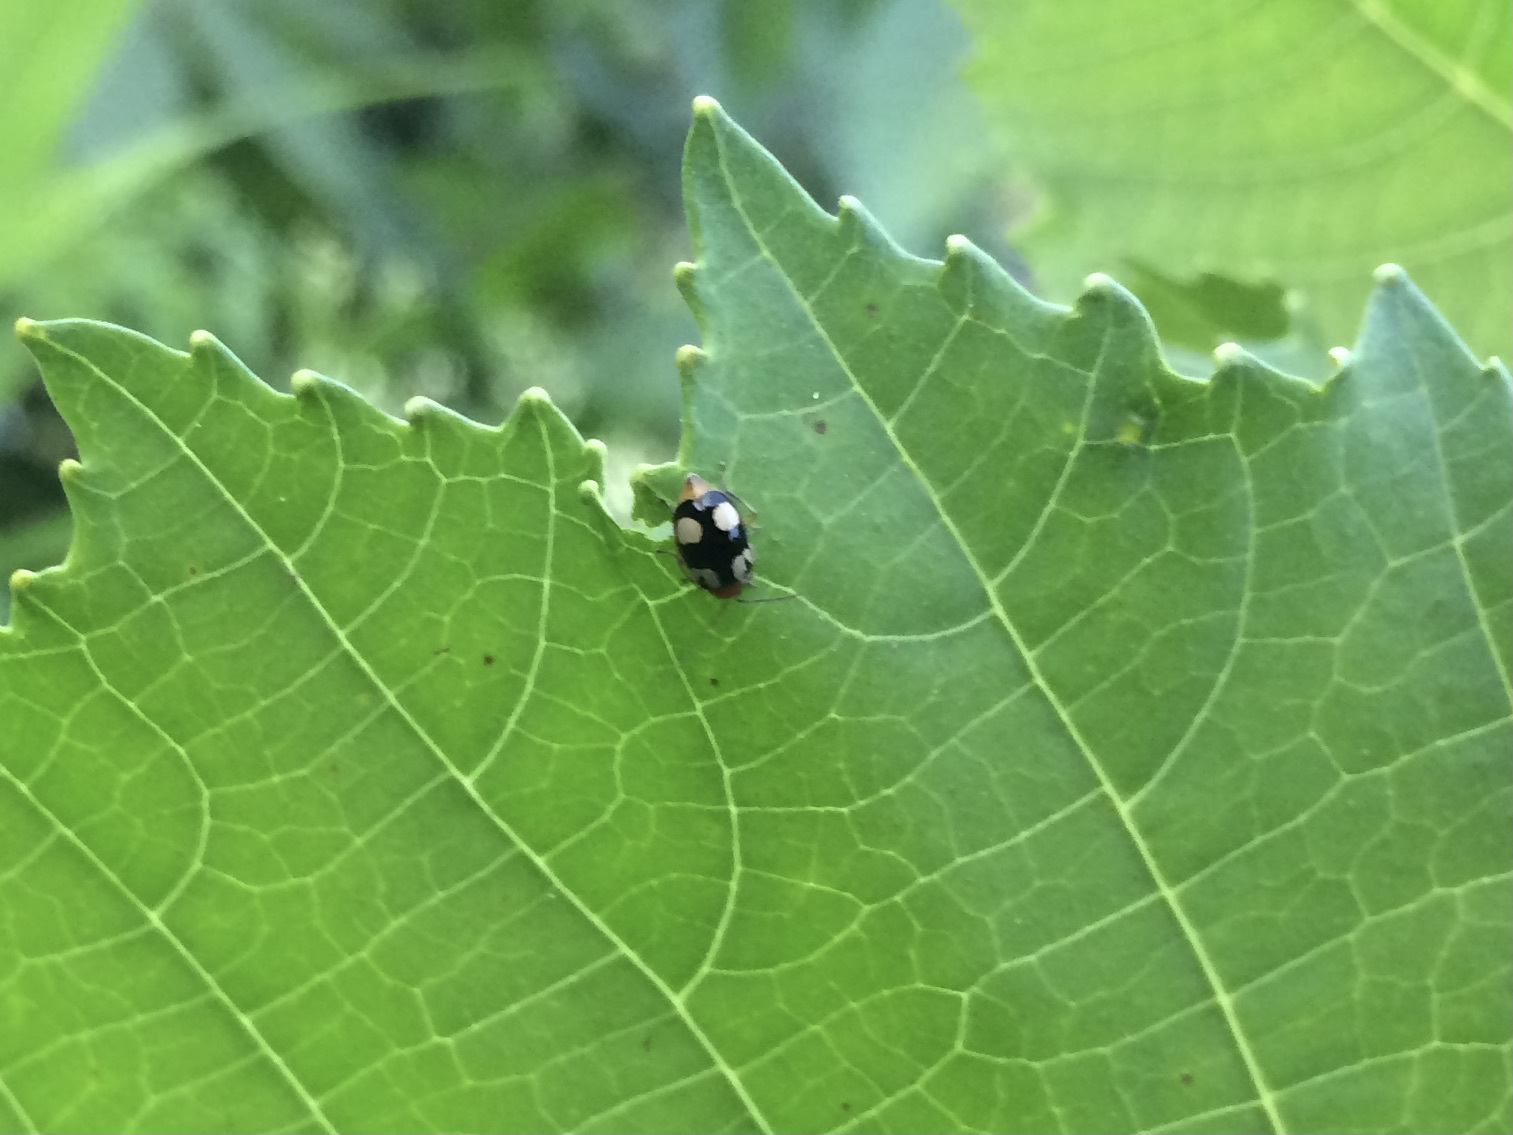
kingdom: Animalia
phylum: Arthropoda
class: Insecta
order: Coleoptera
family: Chrysomelidae
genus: Monolepta
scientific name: Monolepta signata
